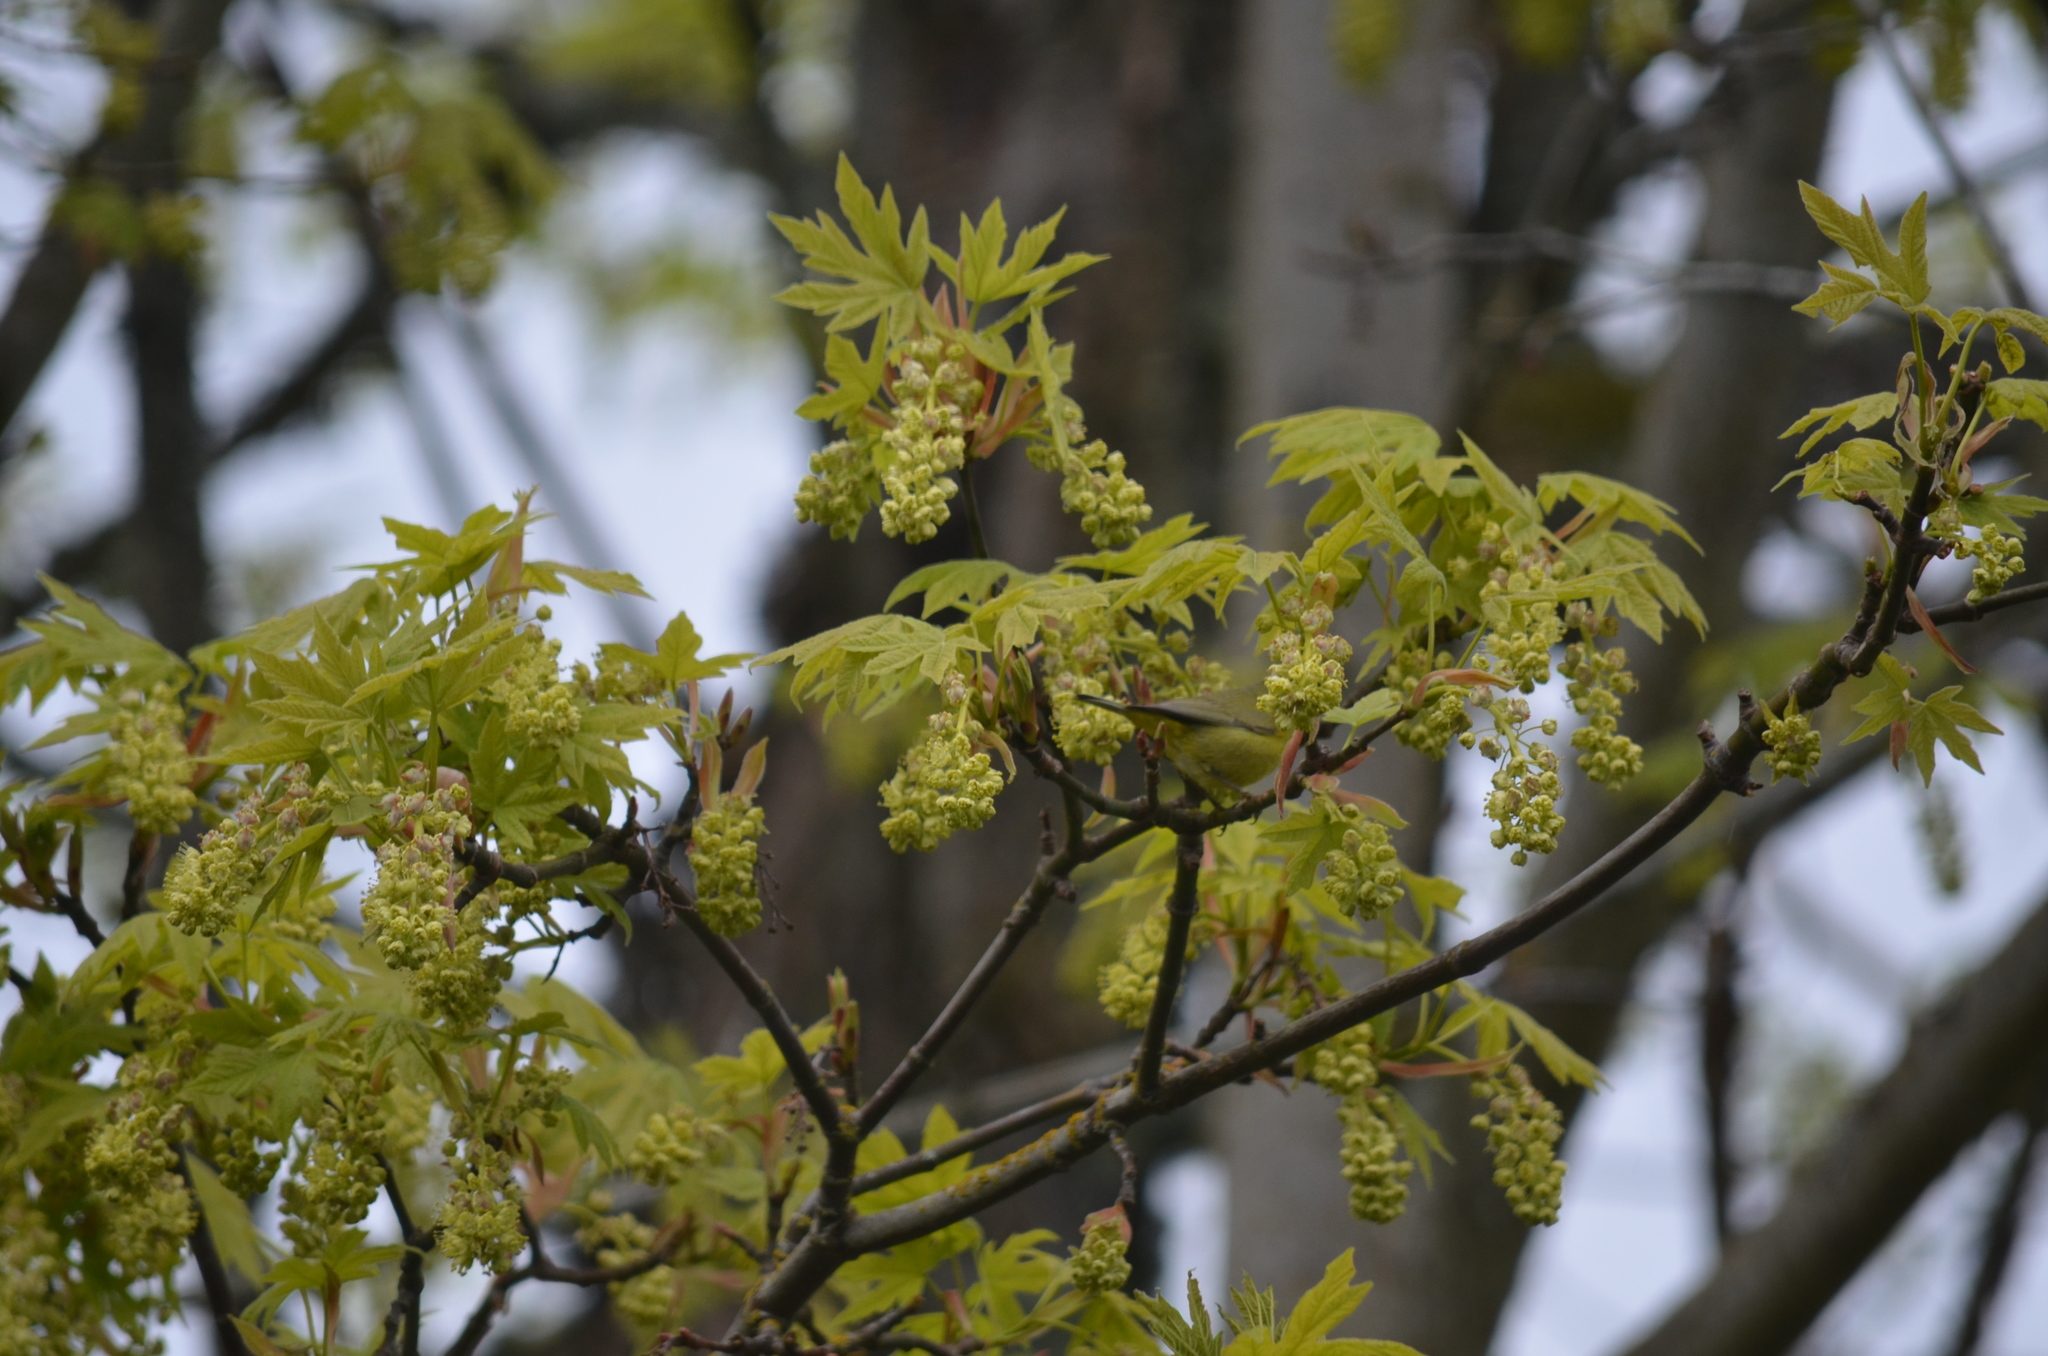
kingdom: Animalia
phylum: Chordata
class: Aves
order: Passeriformes
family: Parulidae
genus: Leiothlypis
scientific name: Leiothlypis celata
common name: Orange-crowned warbler
